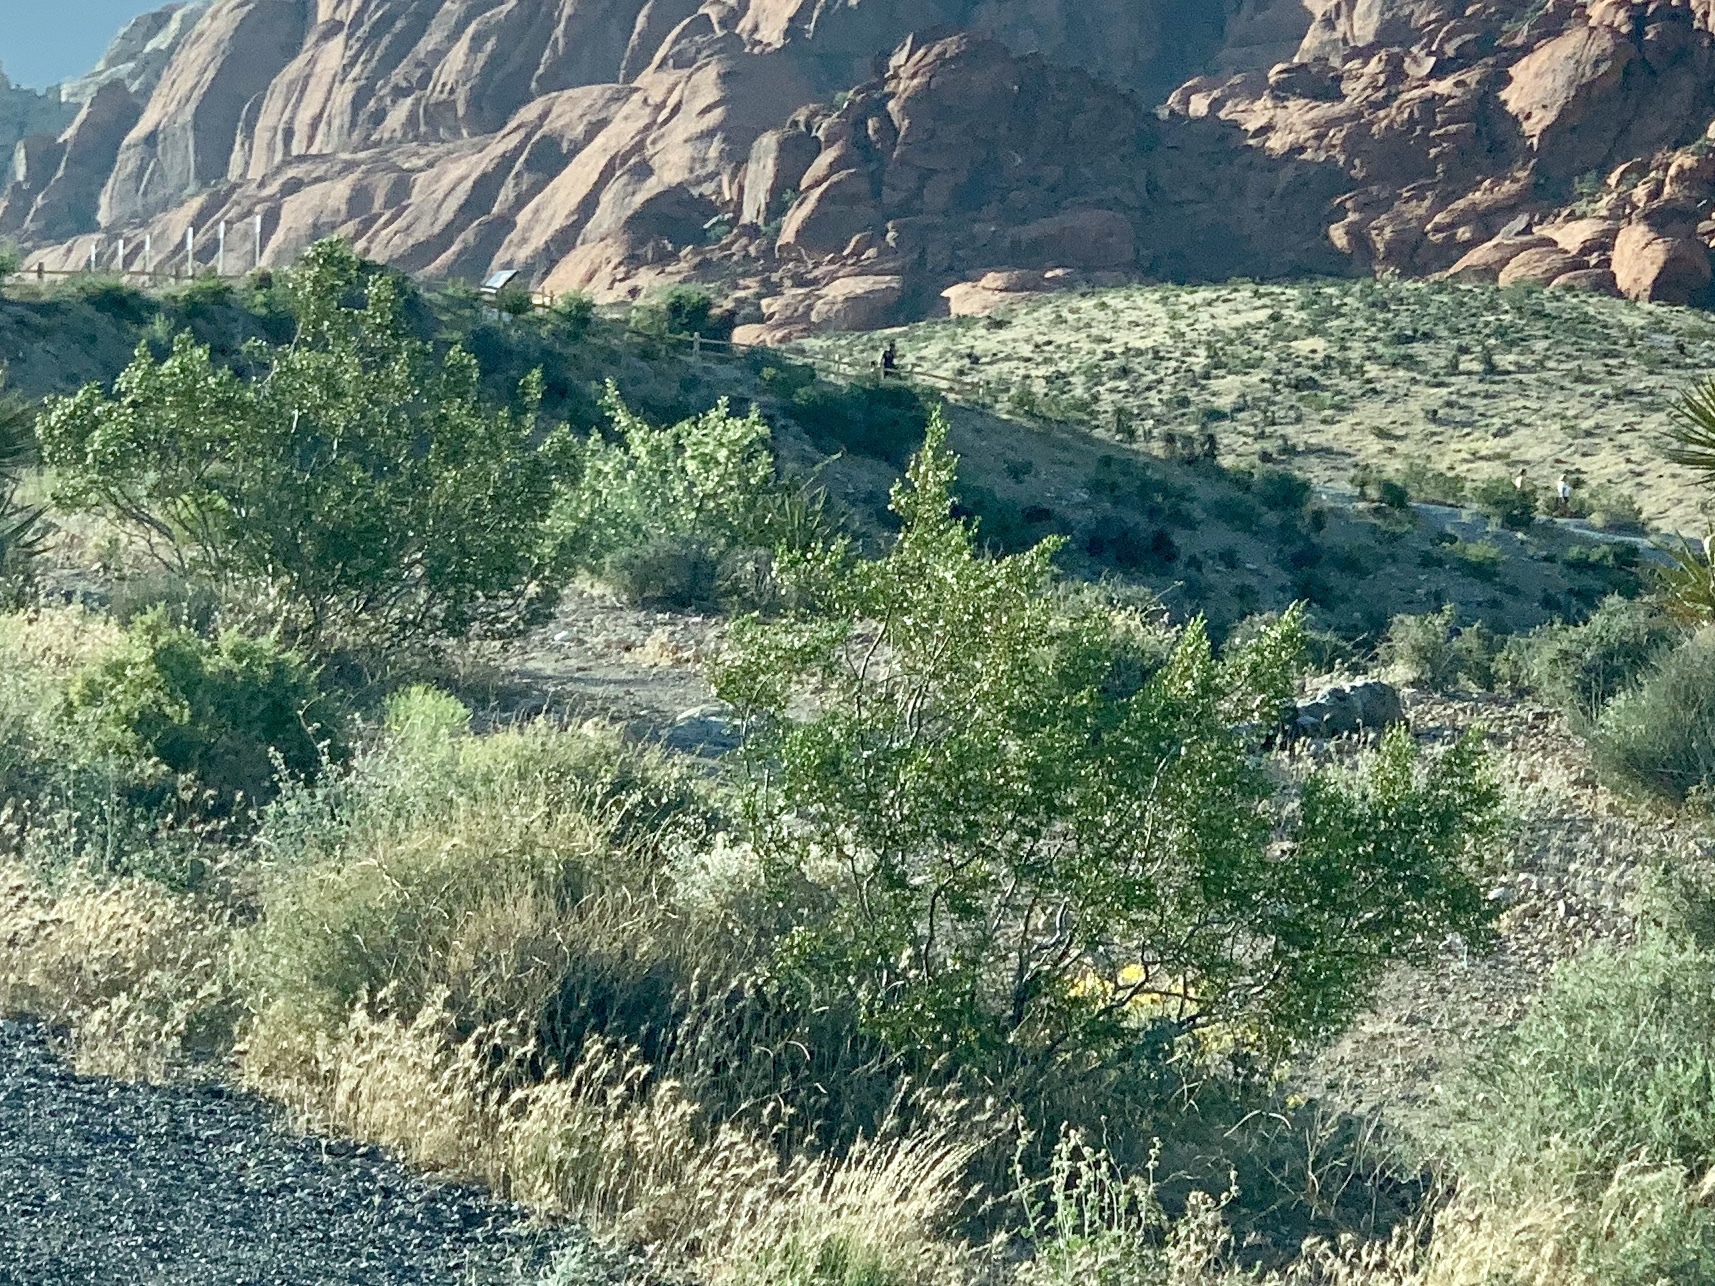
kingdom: Plantae
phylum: Tracheophyta
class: Magnoliopsida
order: Zygophyllales
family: Zygophyllaceae
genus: Larrea
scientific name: Larrea tridentata
